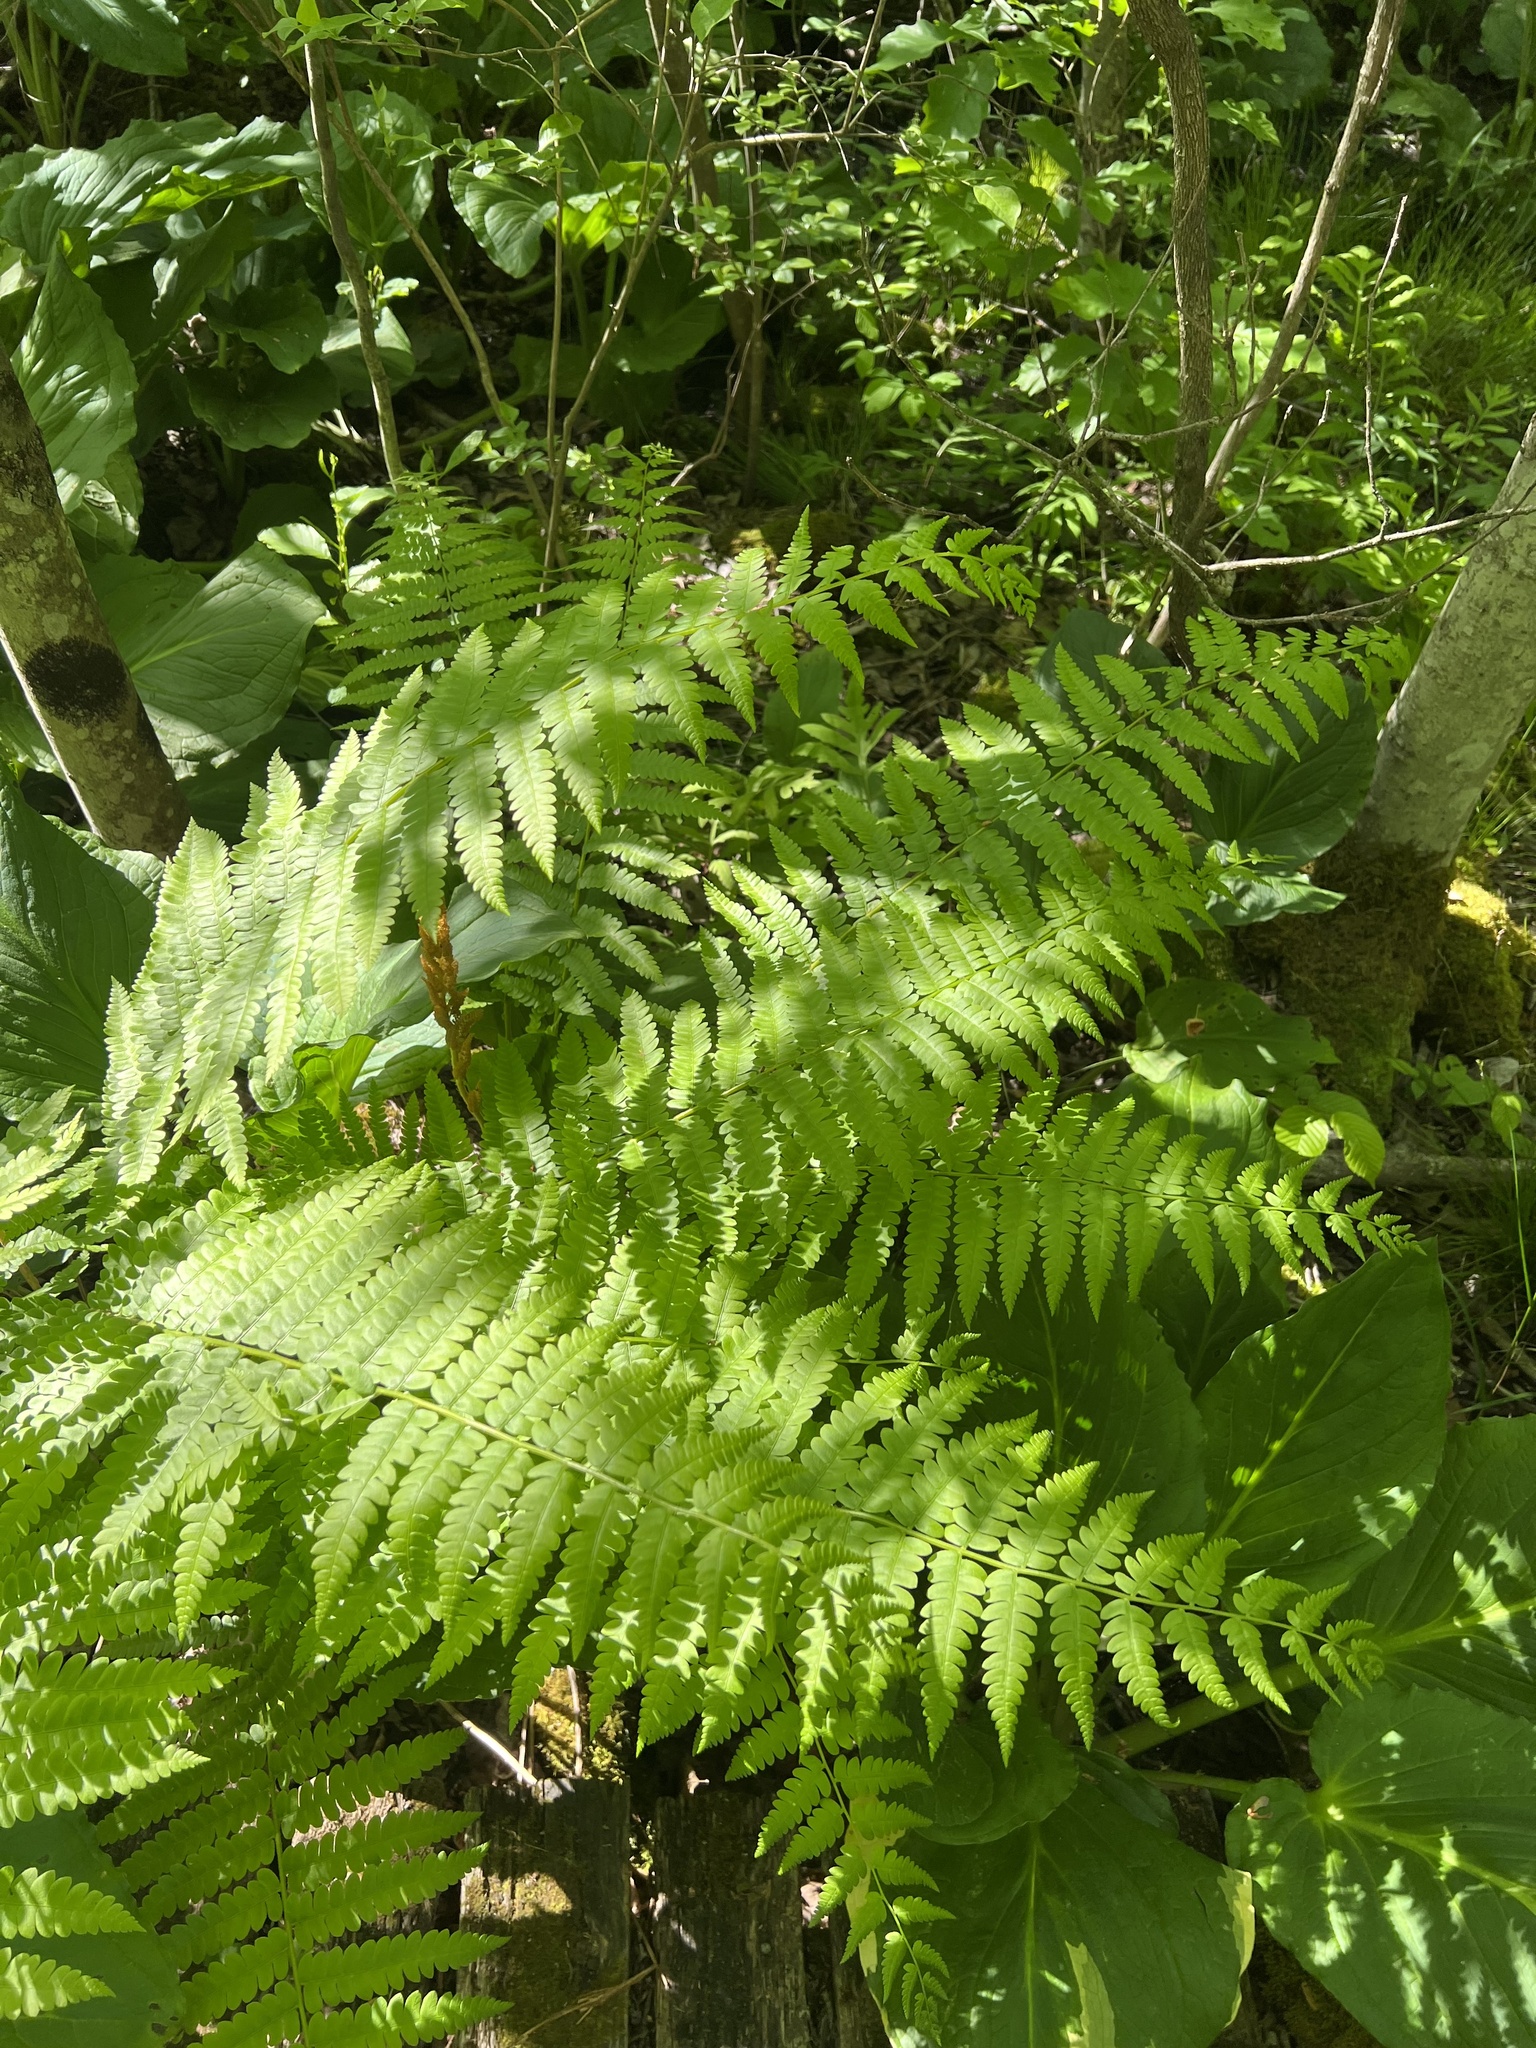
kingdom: Plantae
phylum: Tracheophyta
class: Polypodiopsida
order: Osmundales
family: Osmundaceae
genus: Osmundastrum
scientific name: Osmundastrum cinnamomeum
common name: Cinnamon fern
